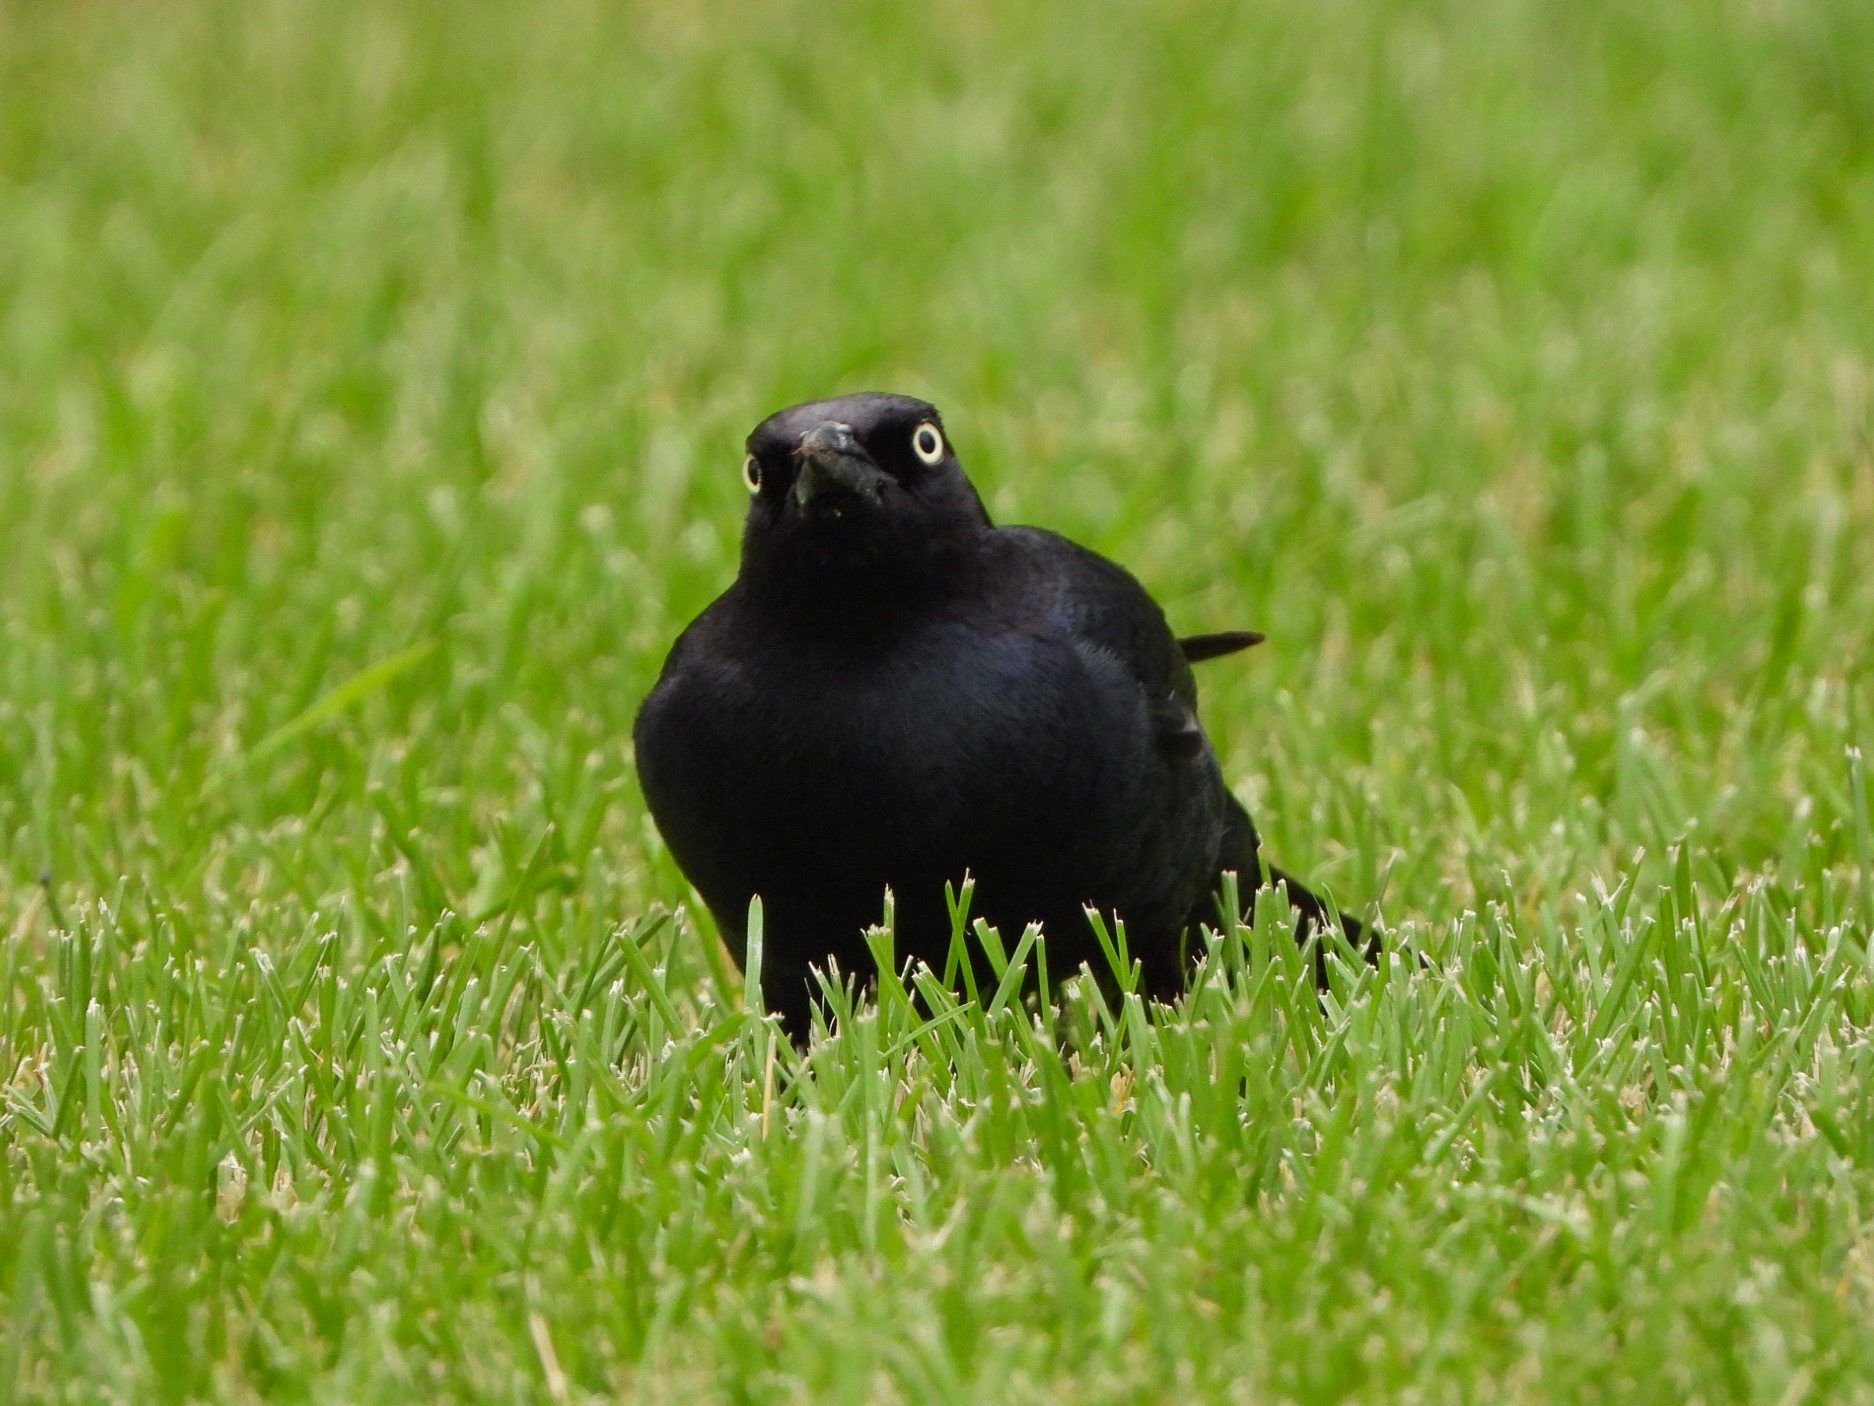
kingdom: Animalia
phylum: Chordata
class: Aves
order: Passeriformes
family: Icteridae
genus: Euphagus
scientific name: Euphagus cyanocephalus
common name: Brewer's blackbird
